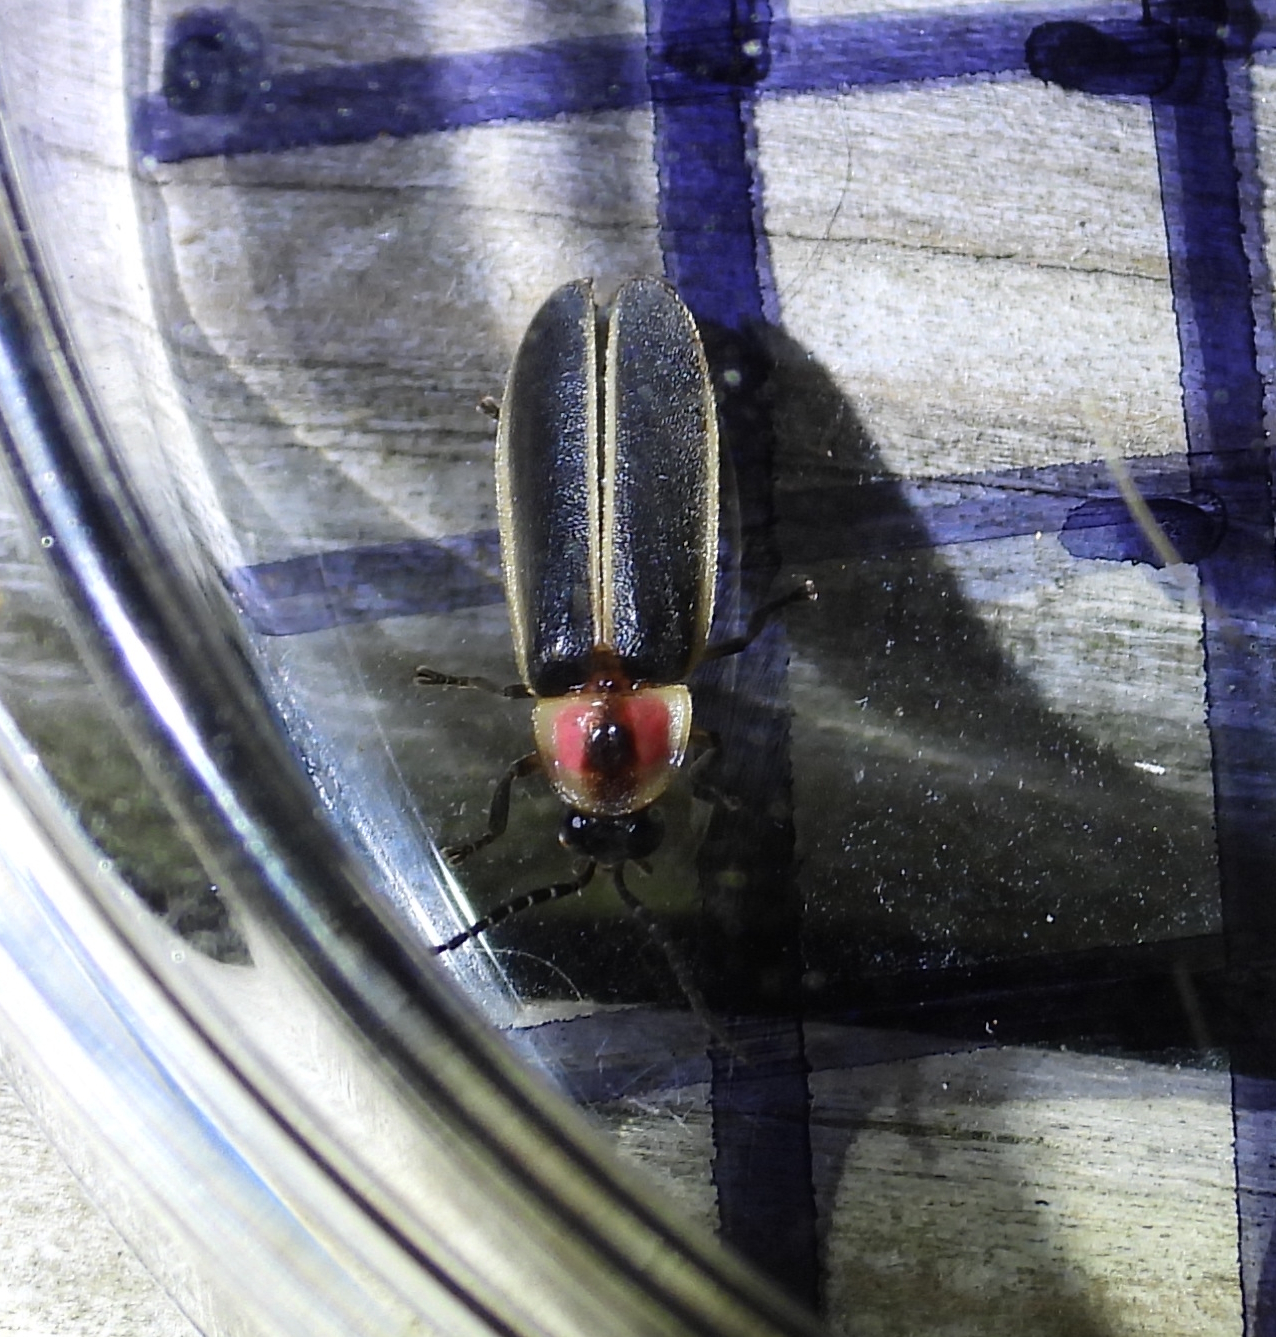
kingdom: Animalia
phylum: Arthropoda
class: Insecta
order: Coleoptera
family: Lampyridae
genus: Photinus
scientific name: Photinus pyralis
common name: Big dipper firefly
